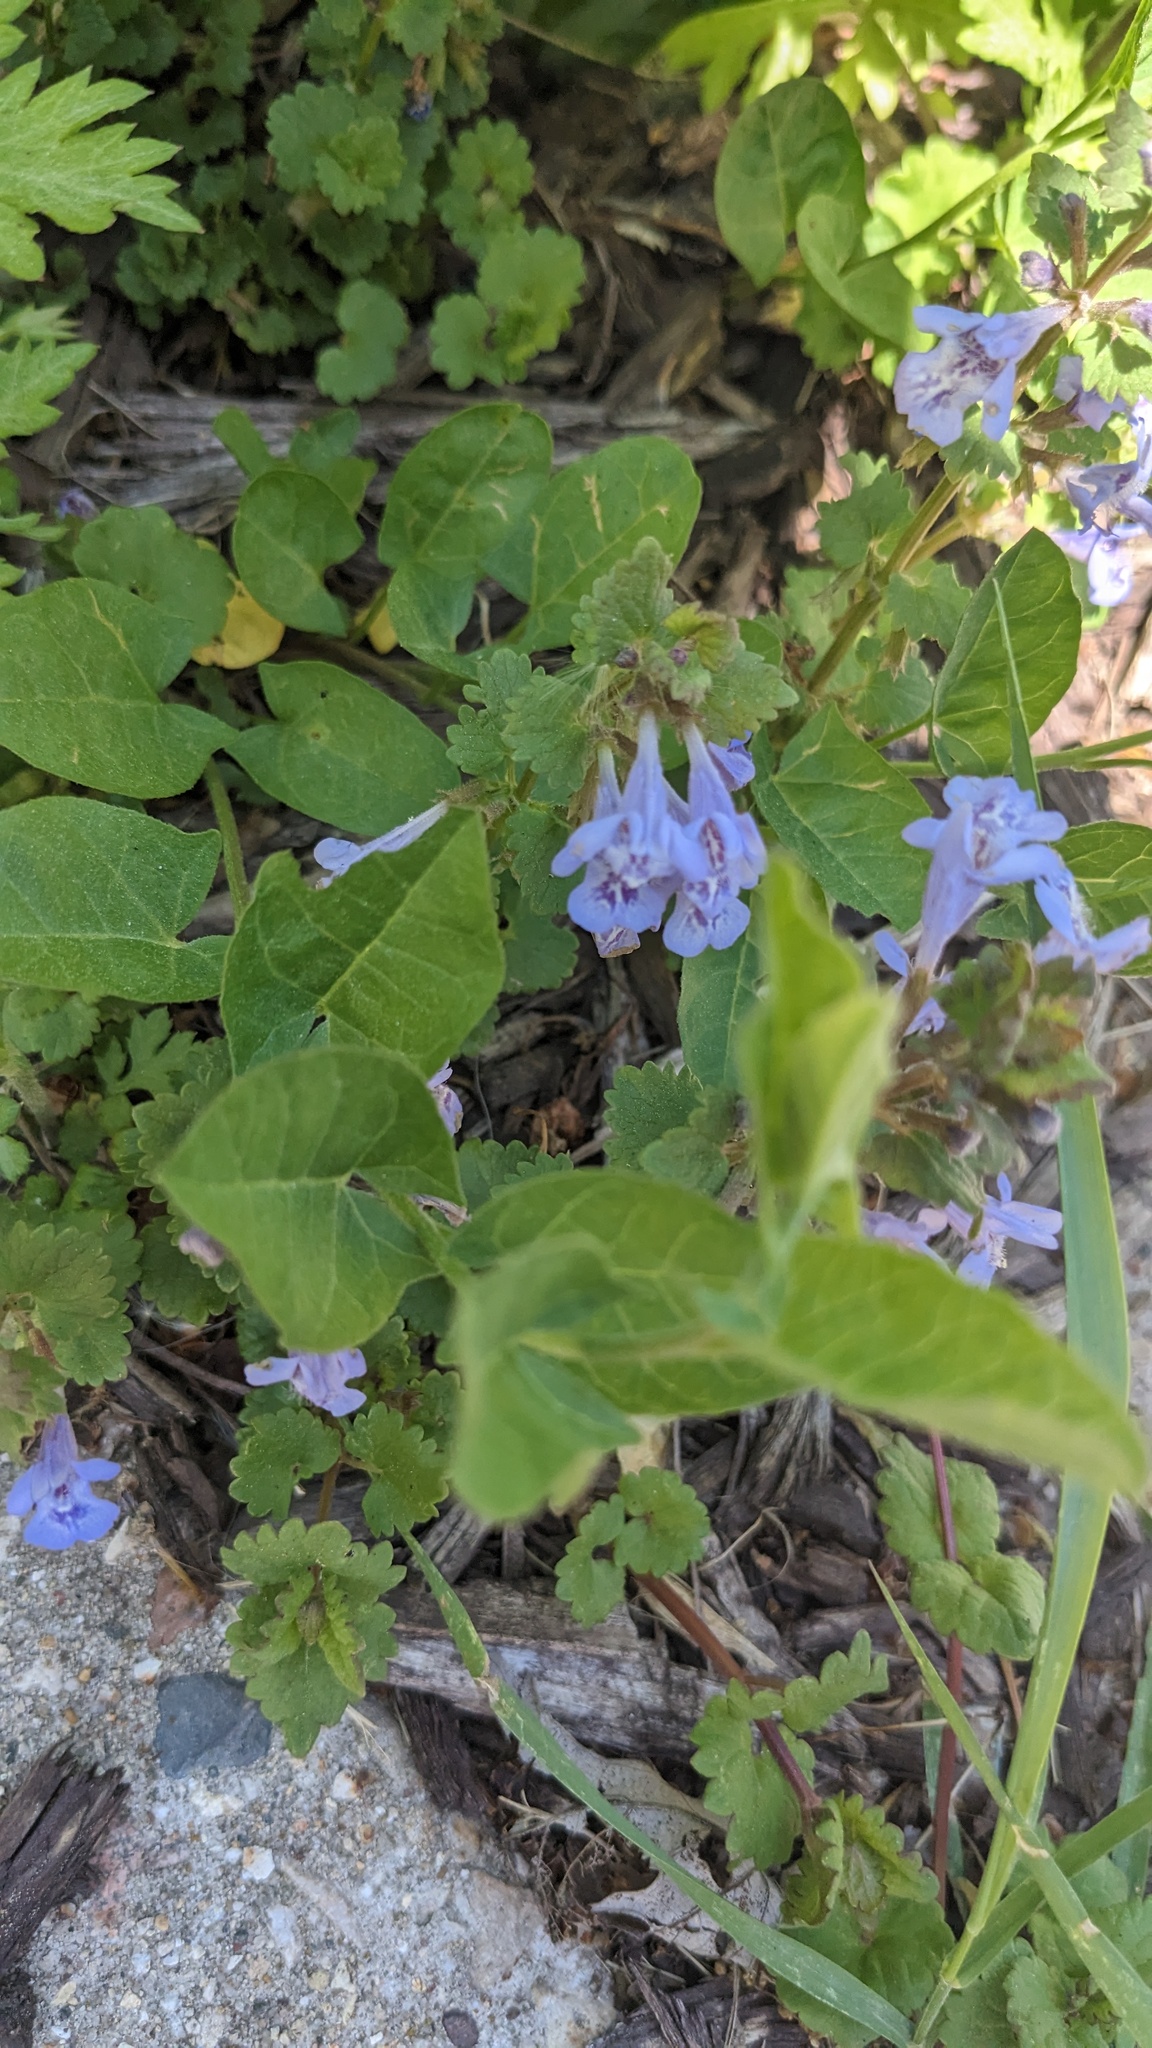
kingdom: Plantae
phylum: Tracheophyta
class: Magnoliopsida
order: Lamiales
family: Lamiaceae
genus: Glechoma
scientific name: Glechoma hederacea
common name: Ground ivy
